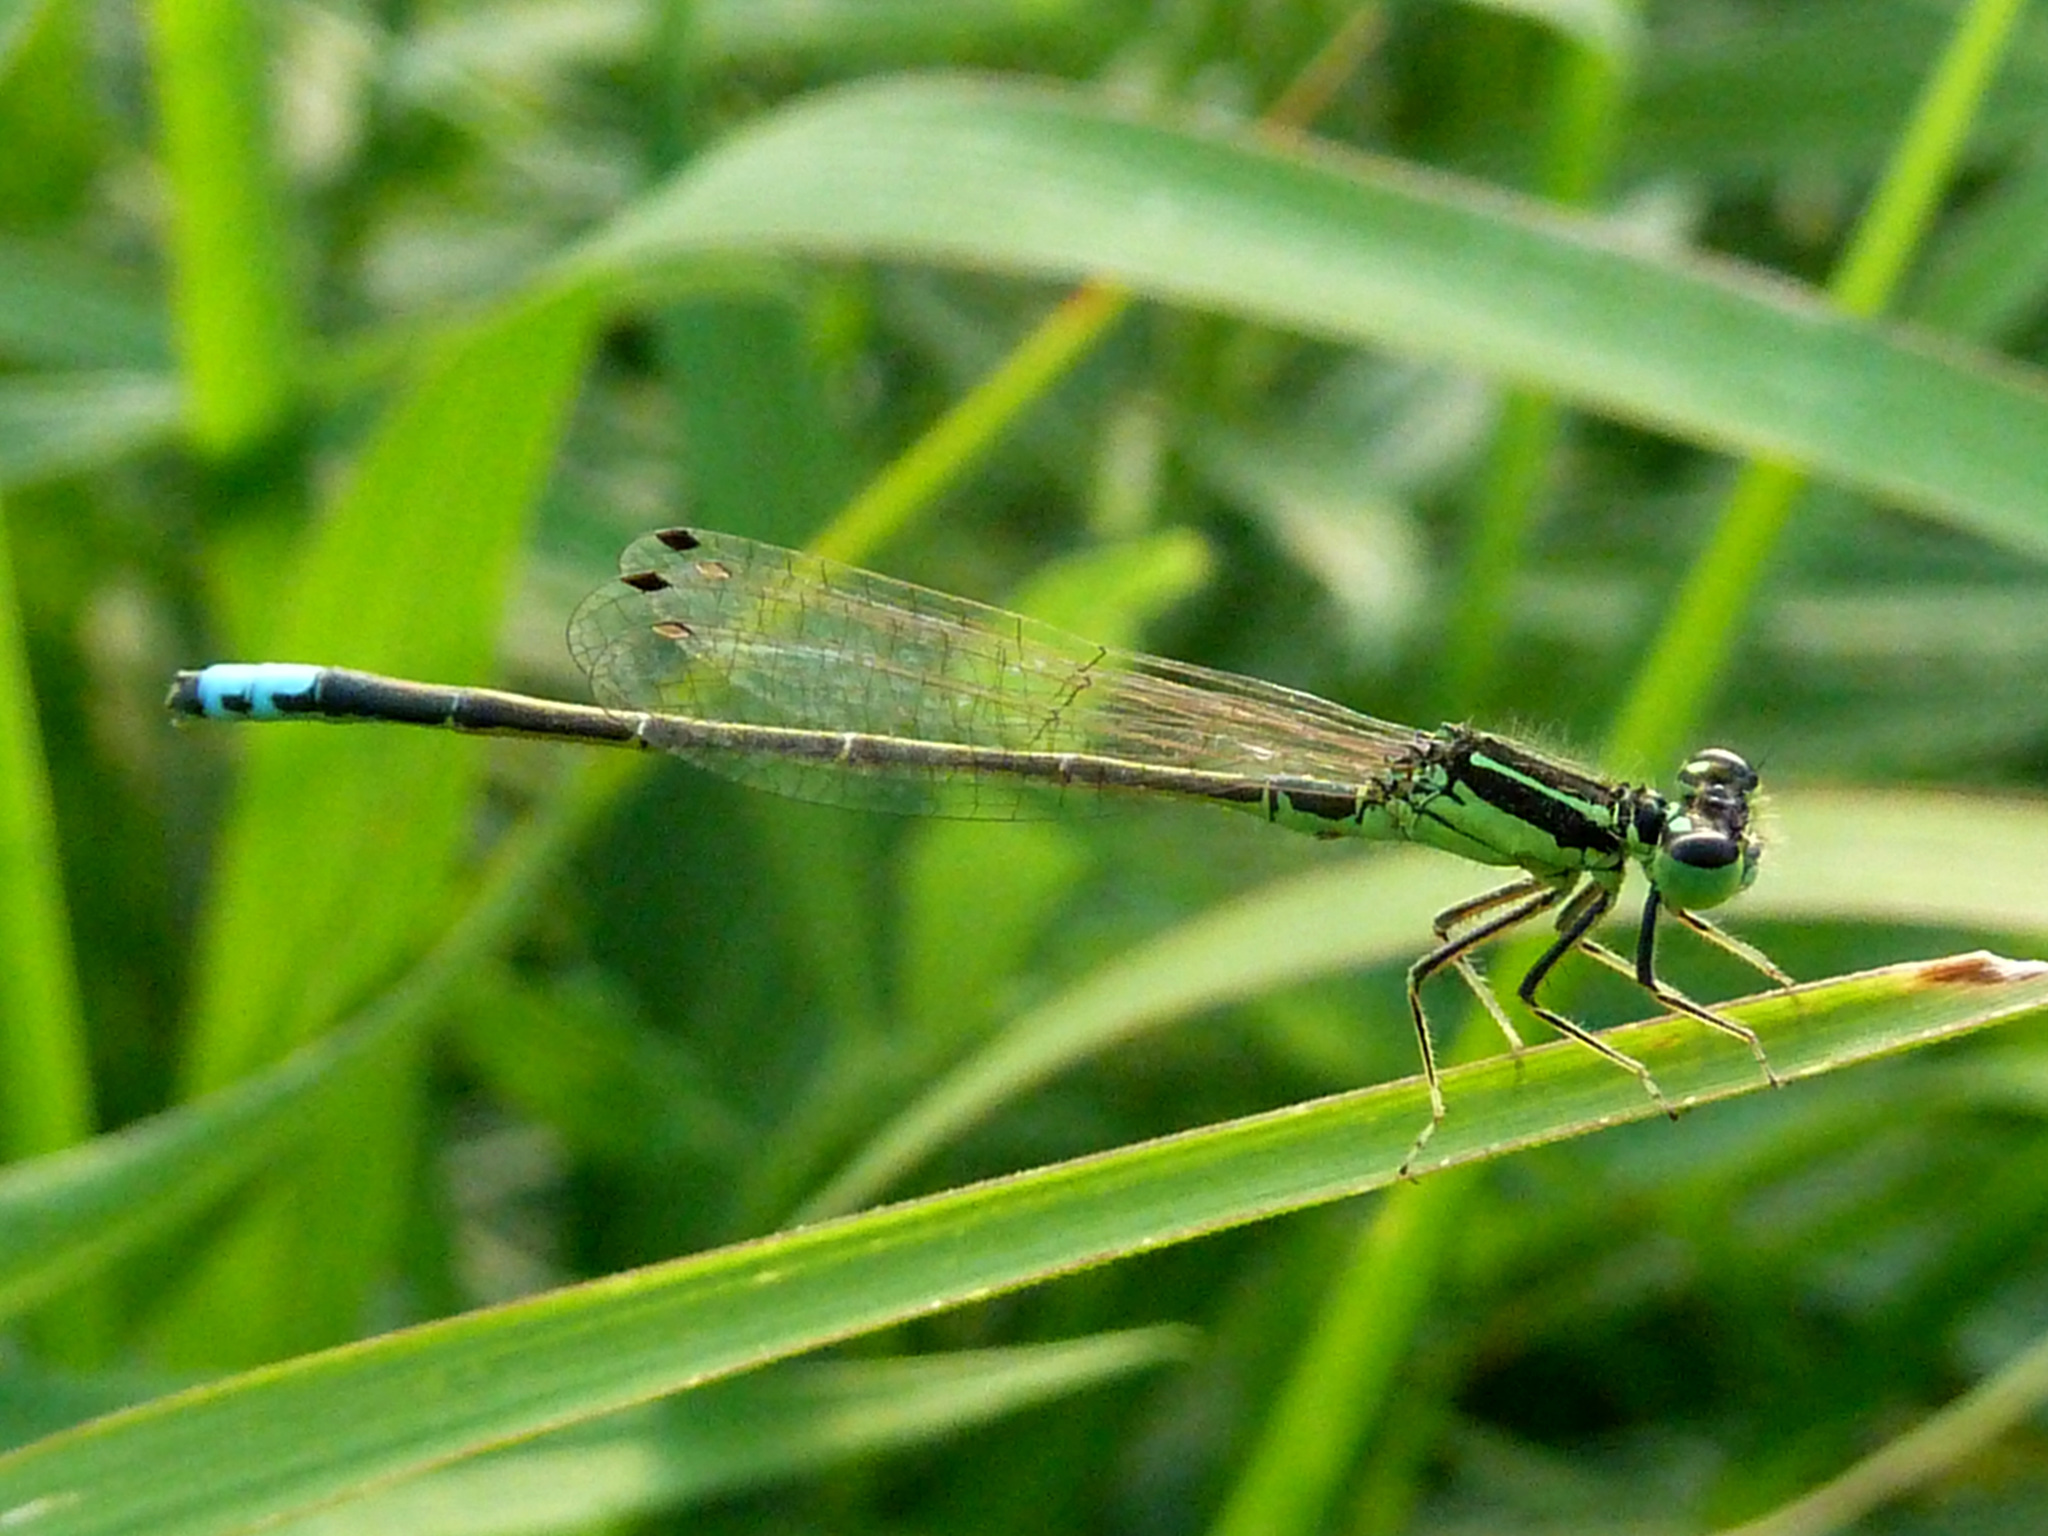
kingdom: Animalia
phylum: Arthropoda
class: Insecta
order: Odonata
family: Coenagrionidae
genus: Ischnura
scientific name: Ischnura verticalis
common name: Eastern forktail
